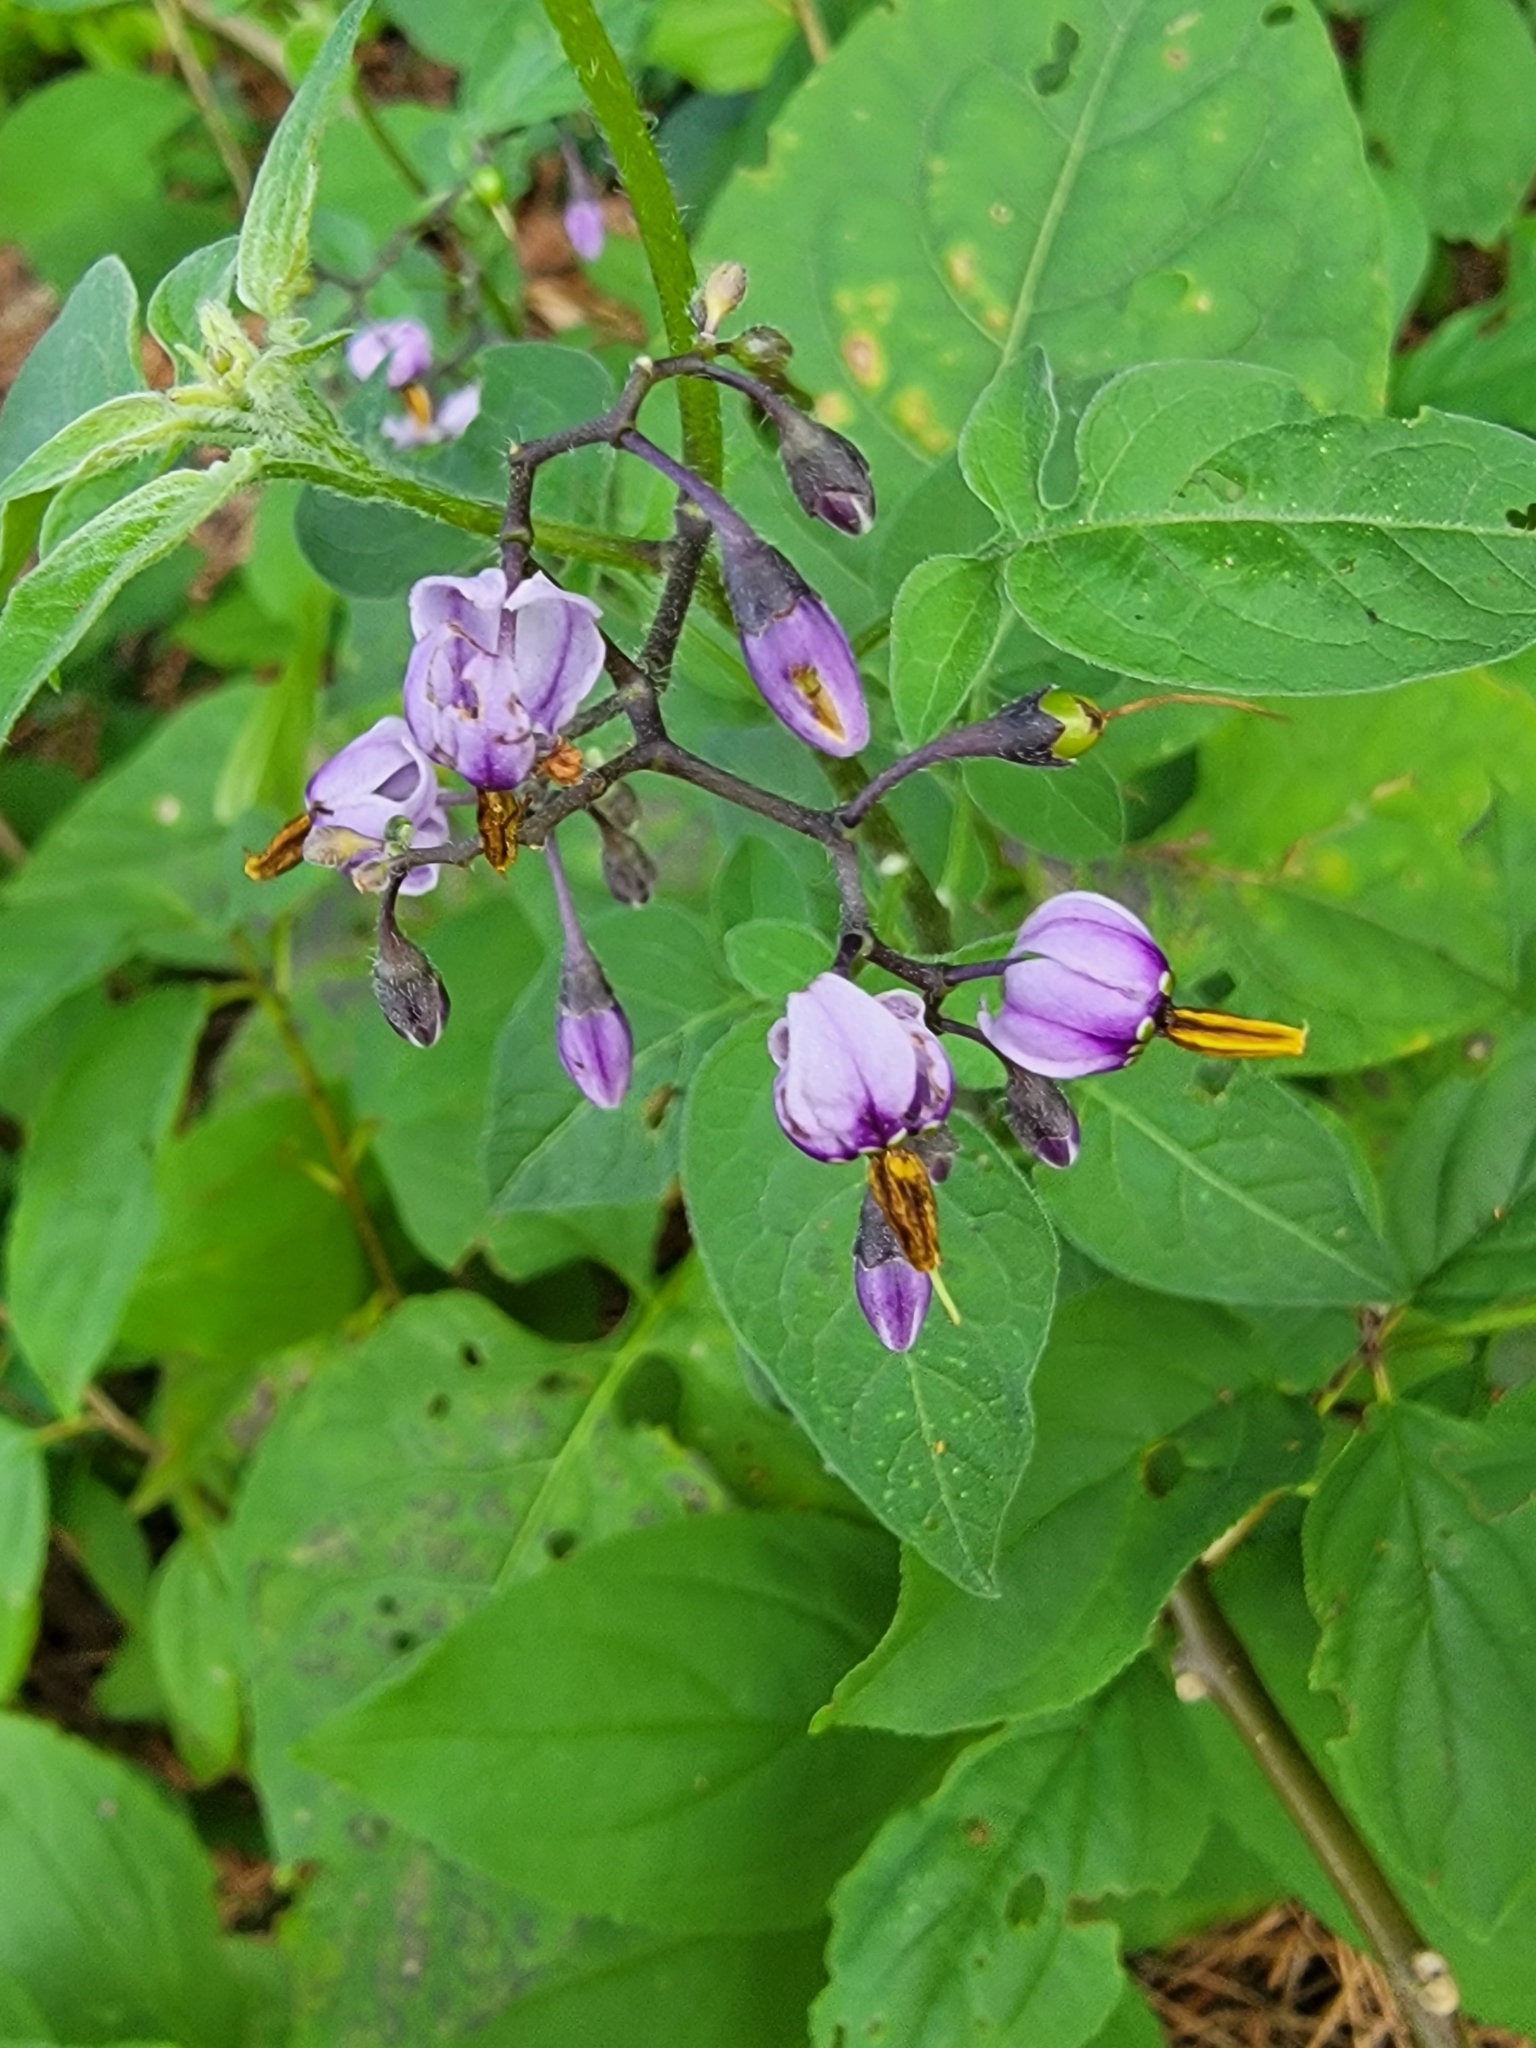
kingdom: Plantae
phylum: Tracheophyta
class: Magnoliopsida
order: Solanales
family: Solanaceae
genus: Solanum
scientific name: Solanum dulcamara
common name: Climbing nightshade
